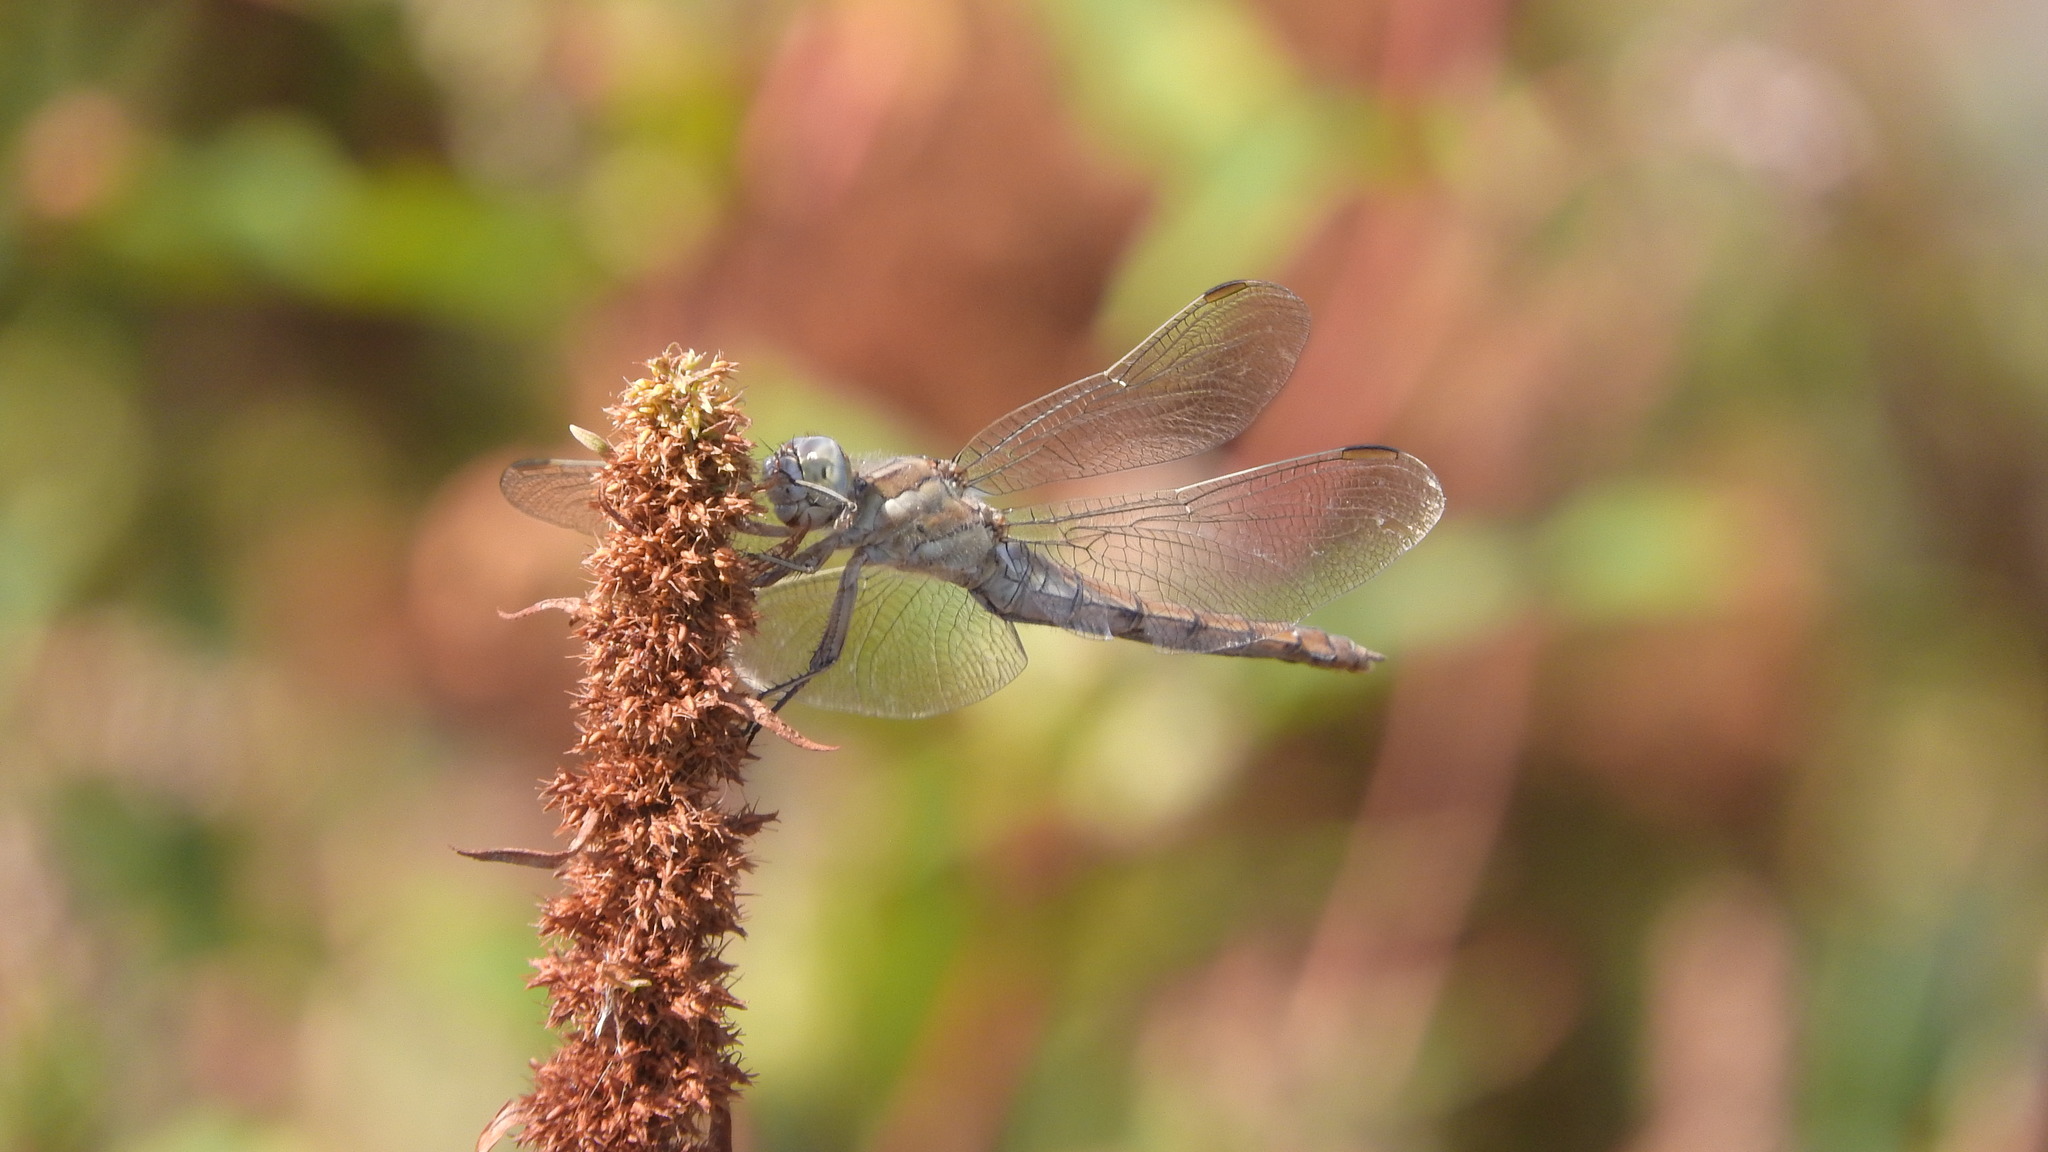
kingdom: Animalia
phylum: Arthropoda
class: Insecta
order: Odonata
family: Libellulidae
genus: Orthetrum
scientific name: Orthetrum brunneum
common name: Southern skimmer
